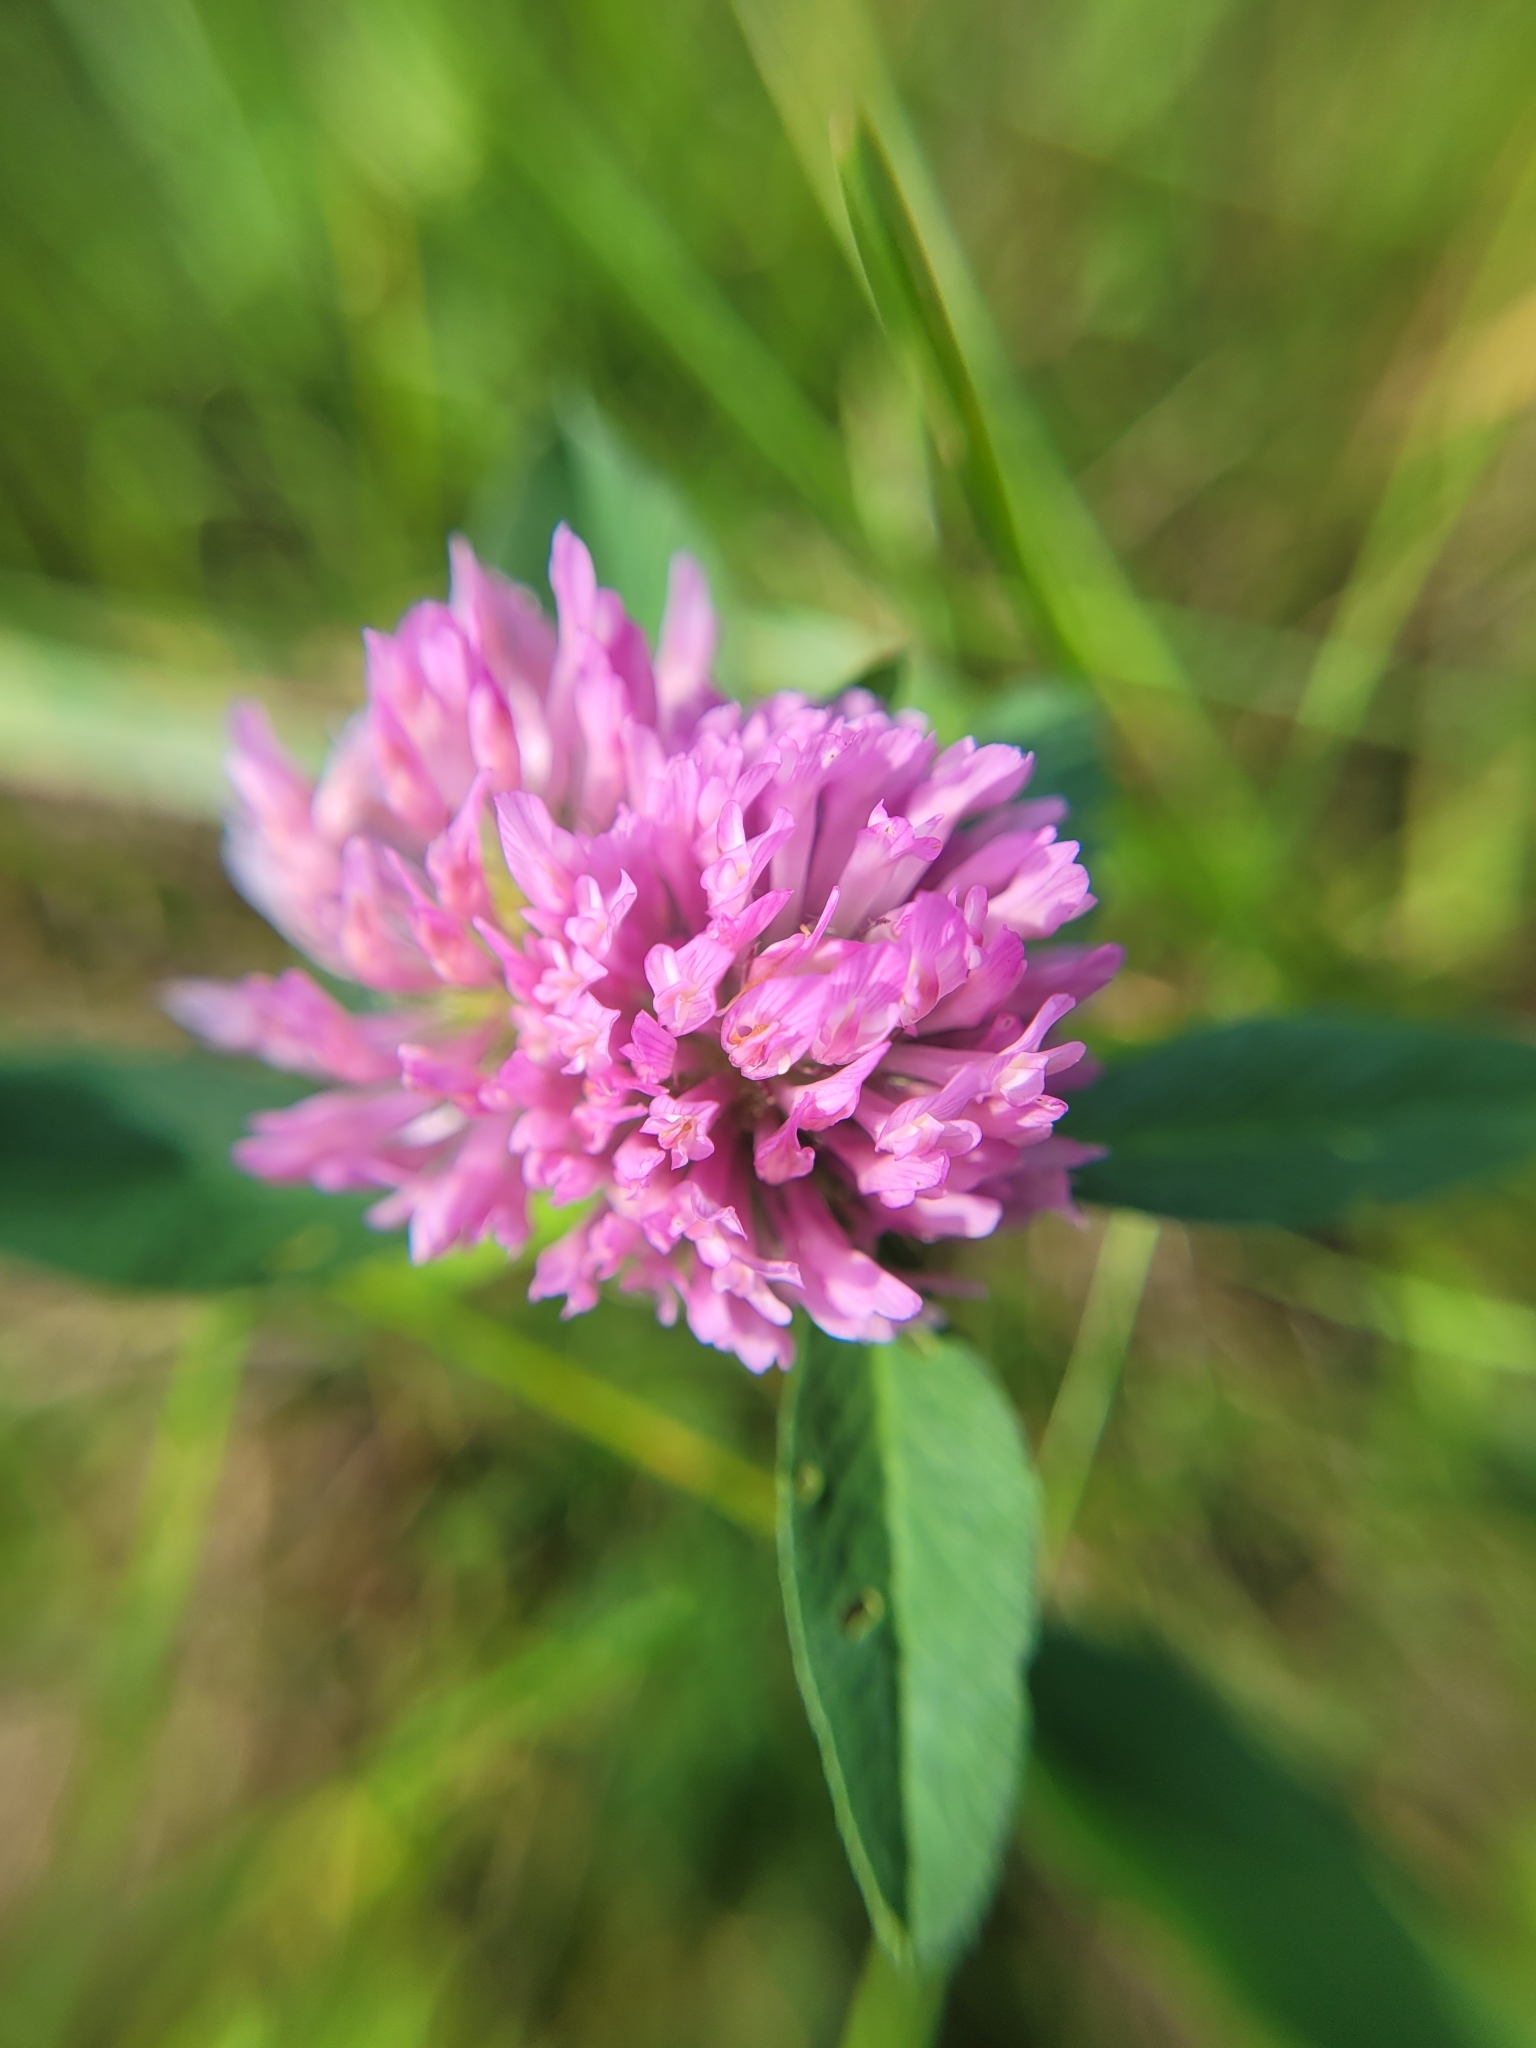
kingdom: Plantae
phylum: Tracheophyta
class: Magnoliopsida
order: Fabales
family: Fabaceae
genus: Trifolium
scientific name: Trifolium pratense
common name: Red clover
